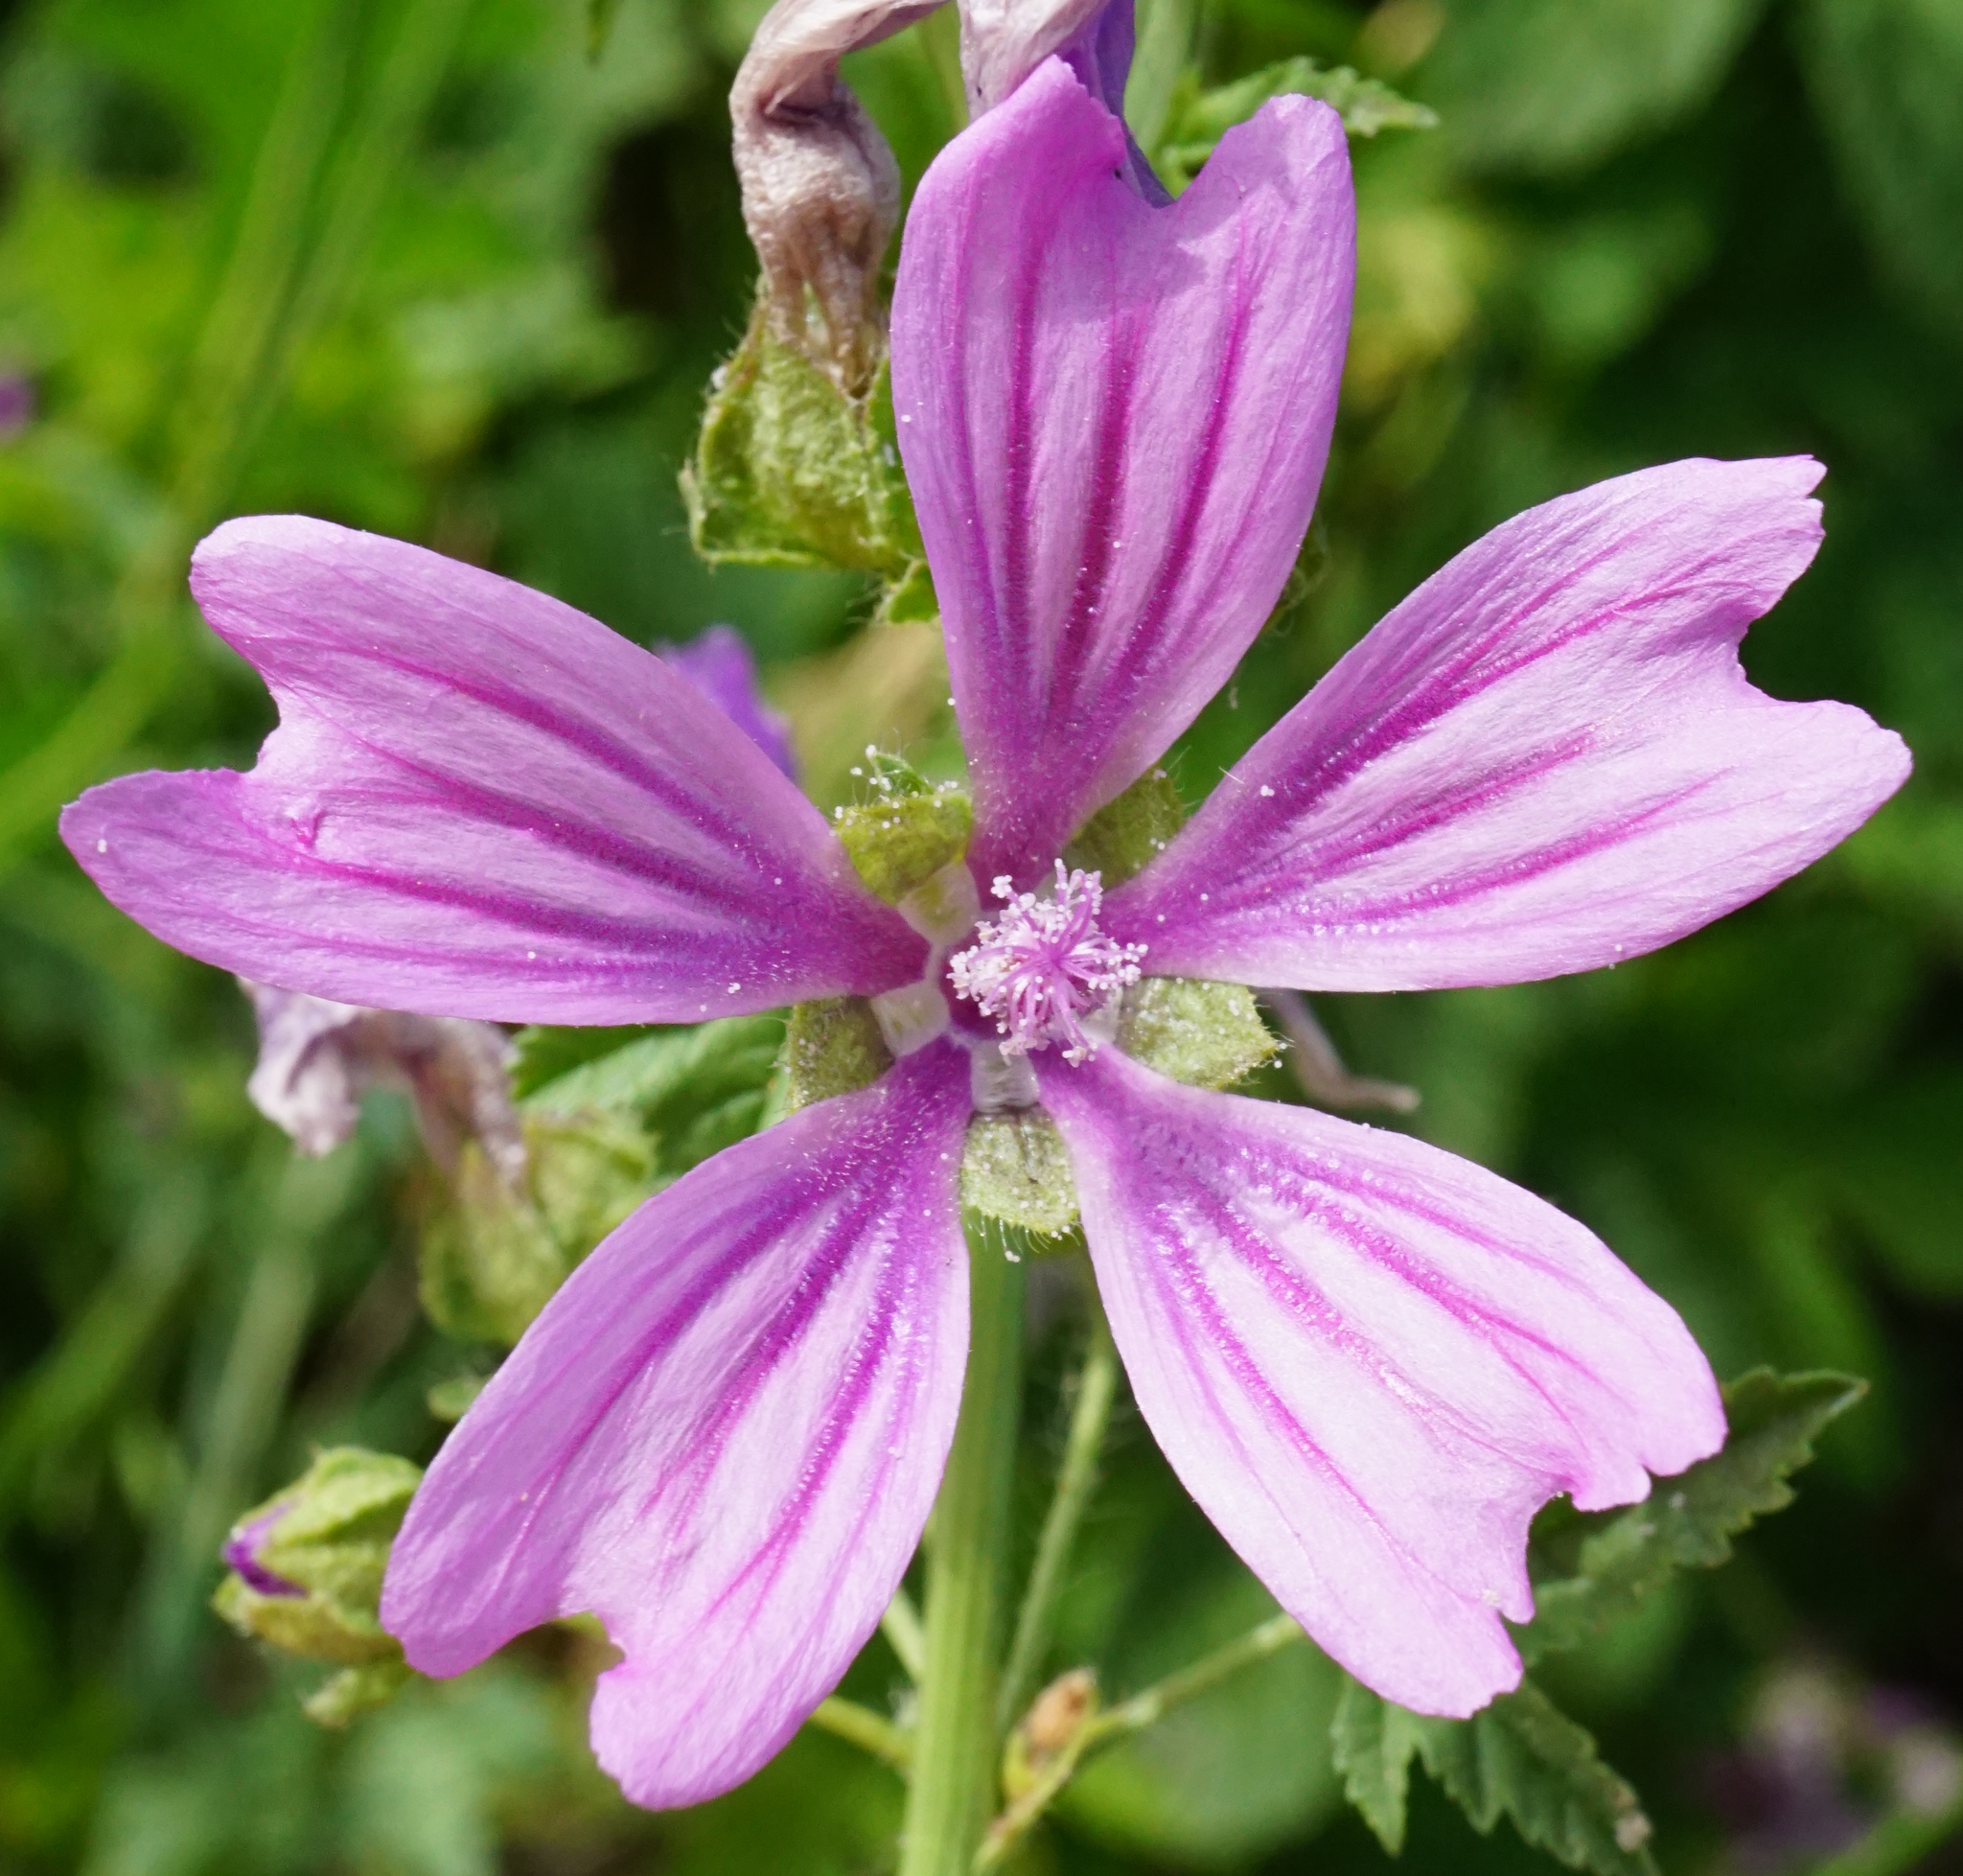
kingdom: Plantae
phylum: Tracheophyta
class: Magnoliopsida
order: Malvales
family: Malvaceae
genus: Malva
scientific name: Malva sylvestris
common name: Common mallow
